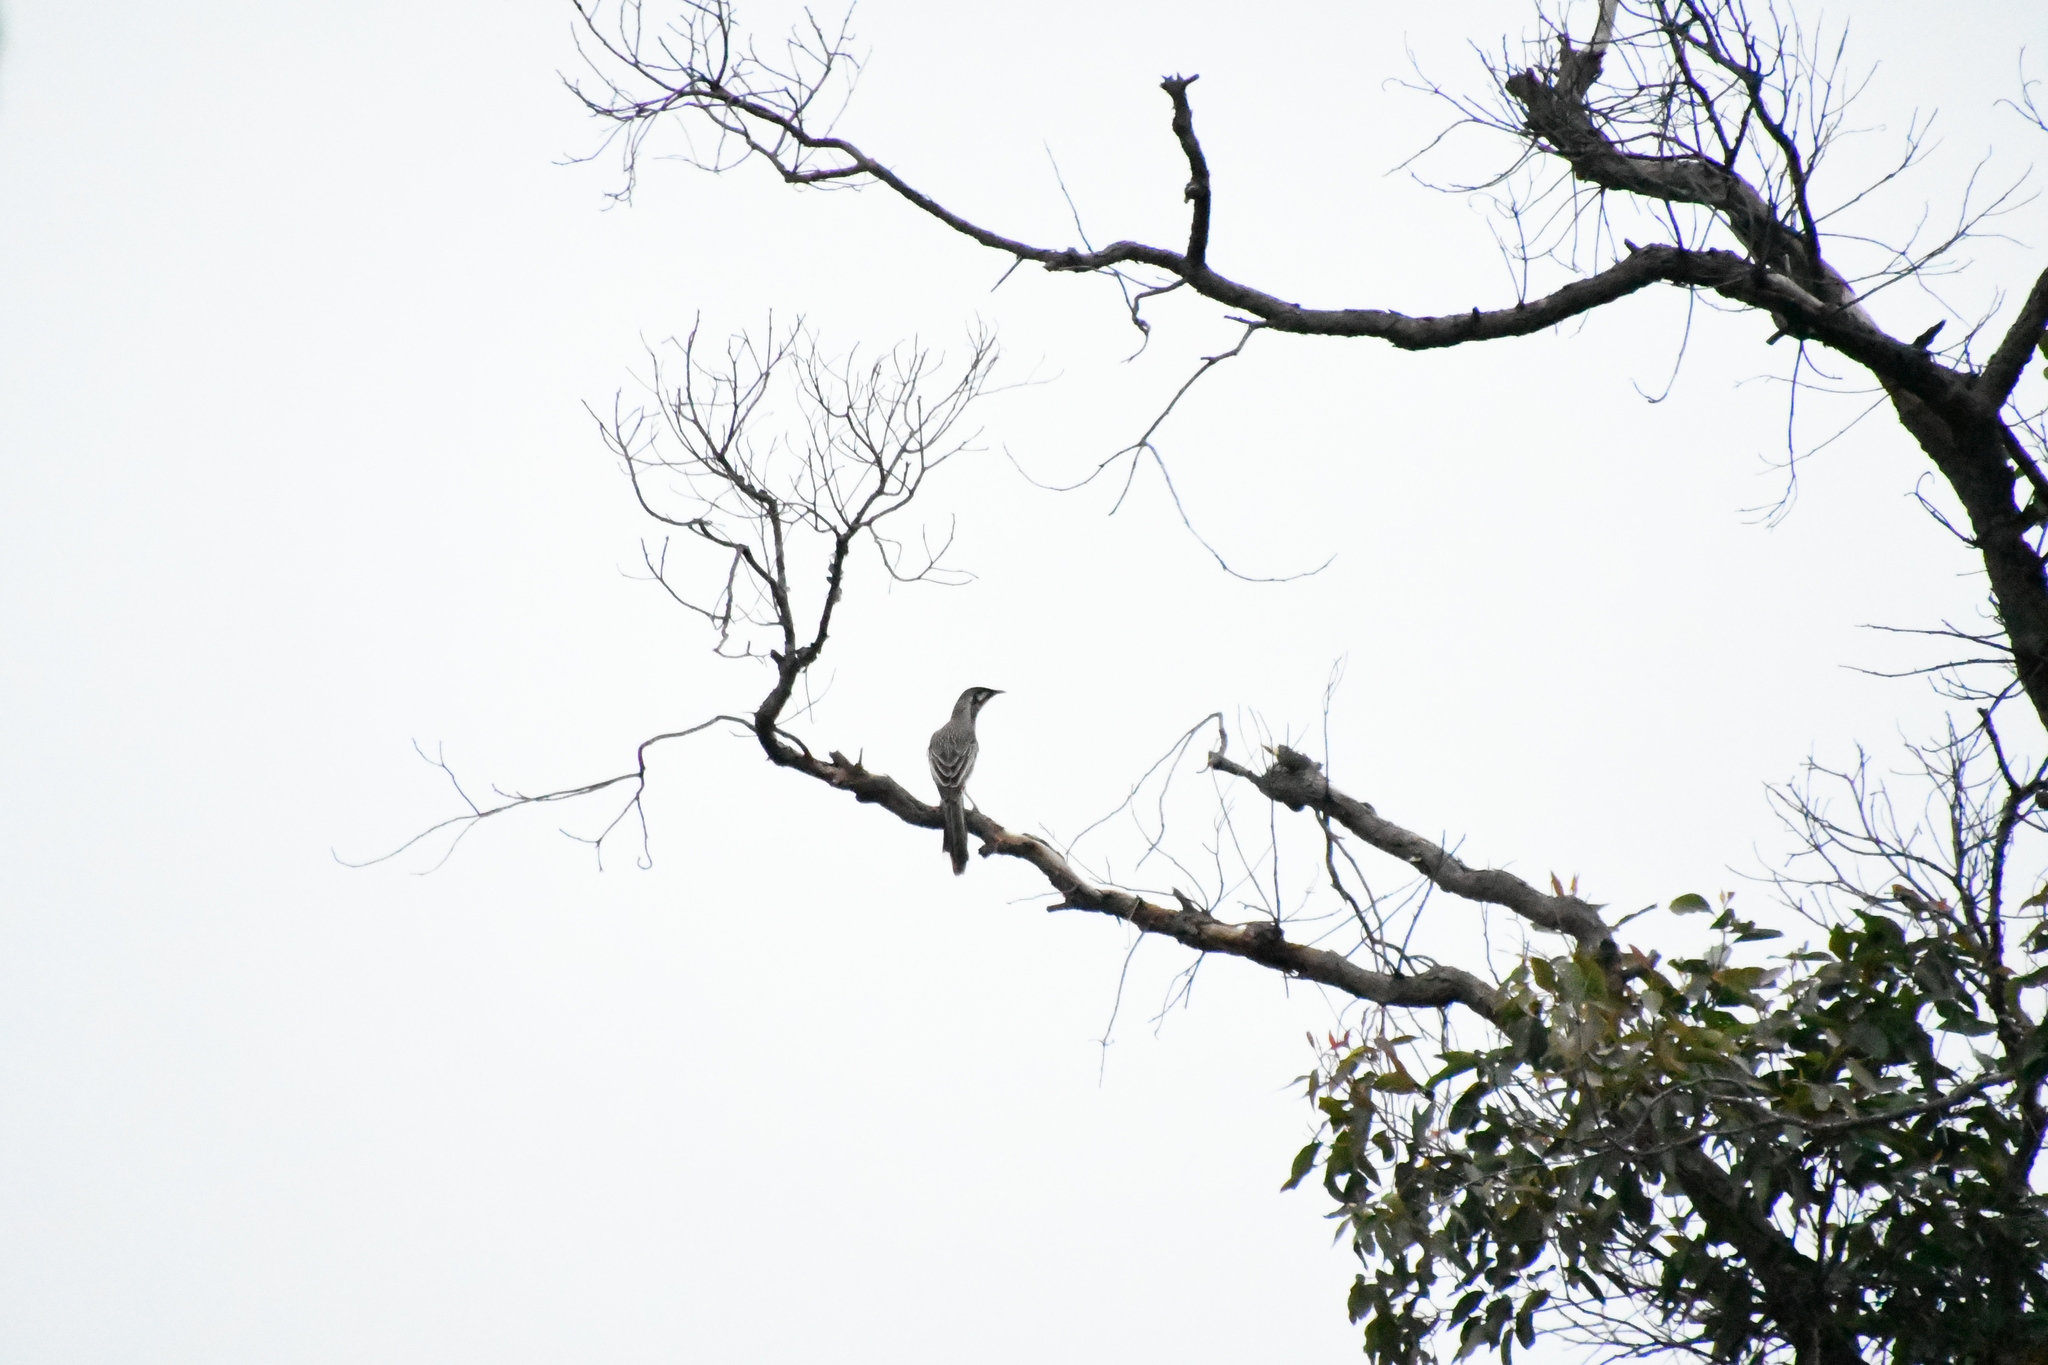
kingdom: Animalia
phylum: Chordata
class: Aves
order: Passeriformes
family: Meliphagidae
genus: Anthochaera
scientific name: Anthochaera carunculata
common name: Red wattlebird
